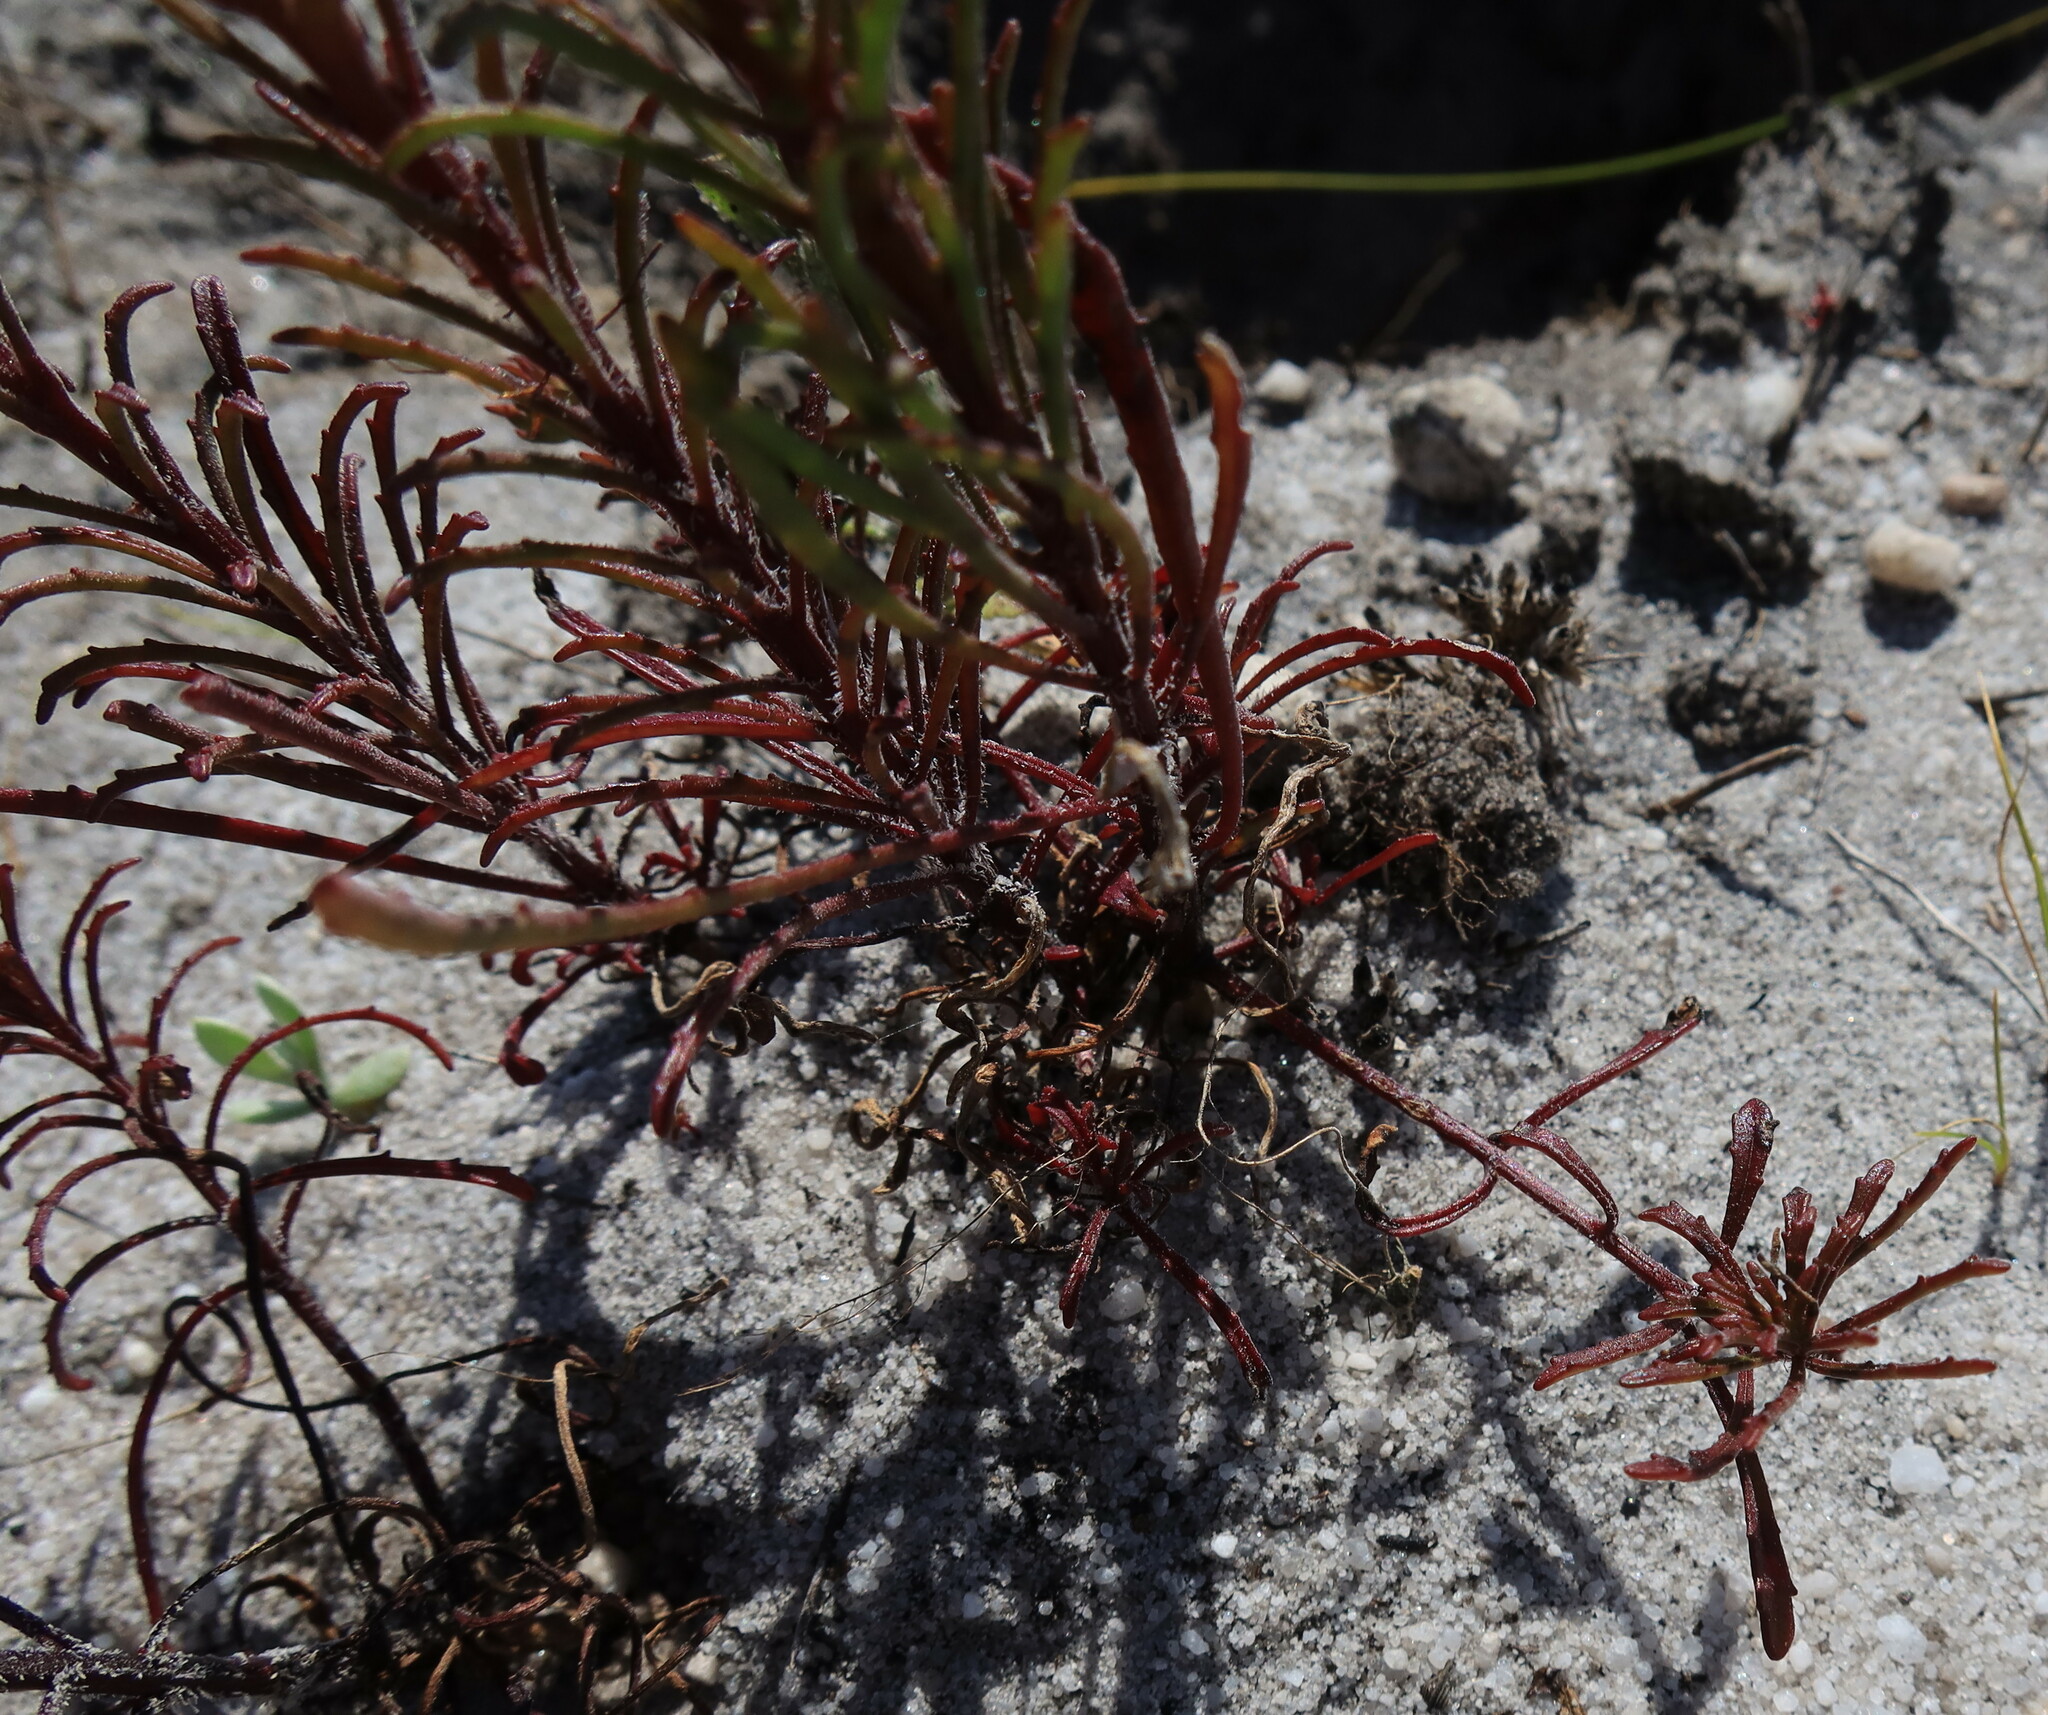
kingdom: Plantae
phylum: Tracheophyta
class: Magnoliopsida
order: Lamiales
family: Scrophulariaceae
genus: Hebenstretia
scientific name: Hebenstretia fastigiosa
